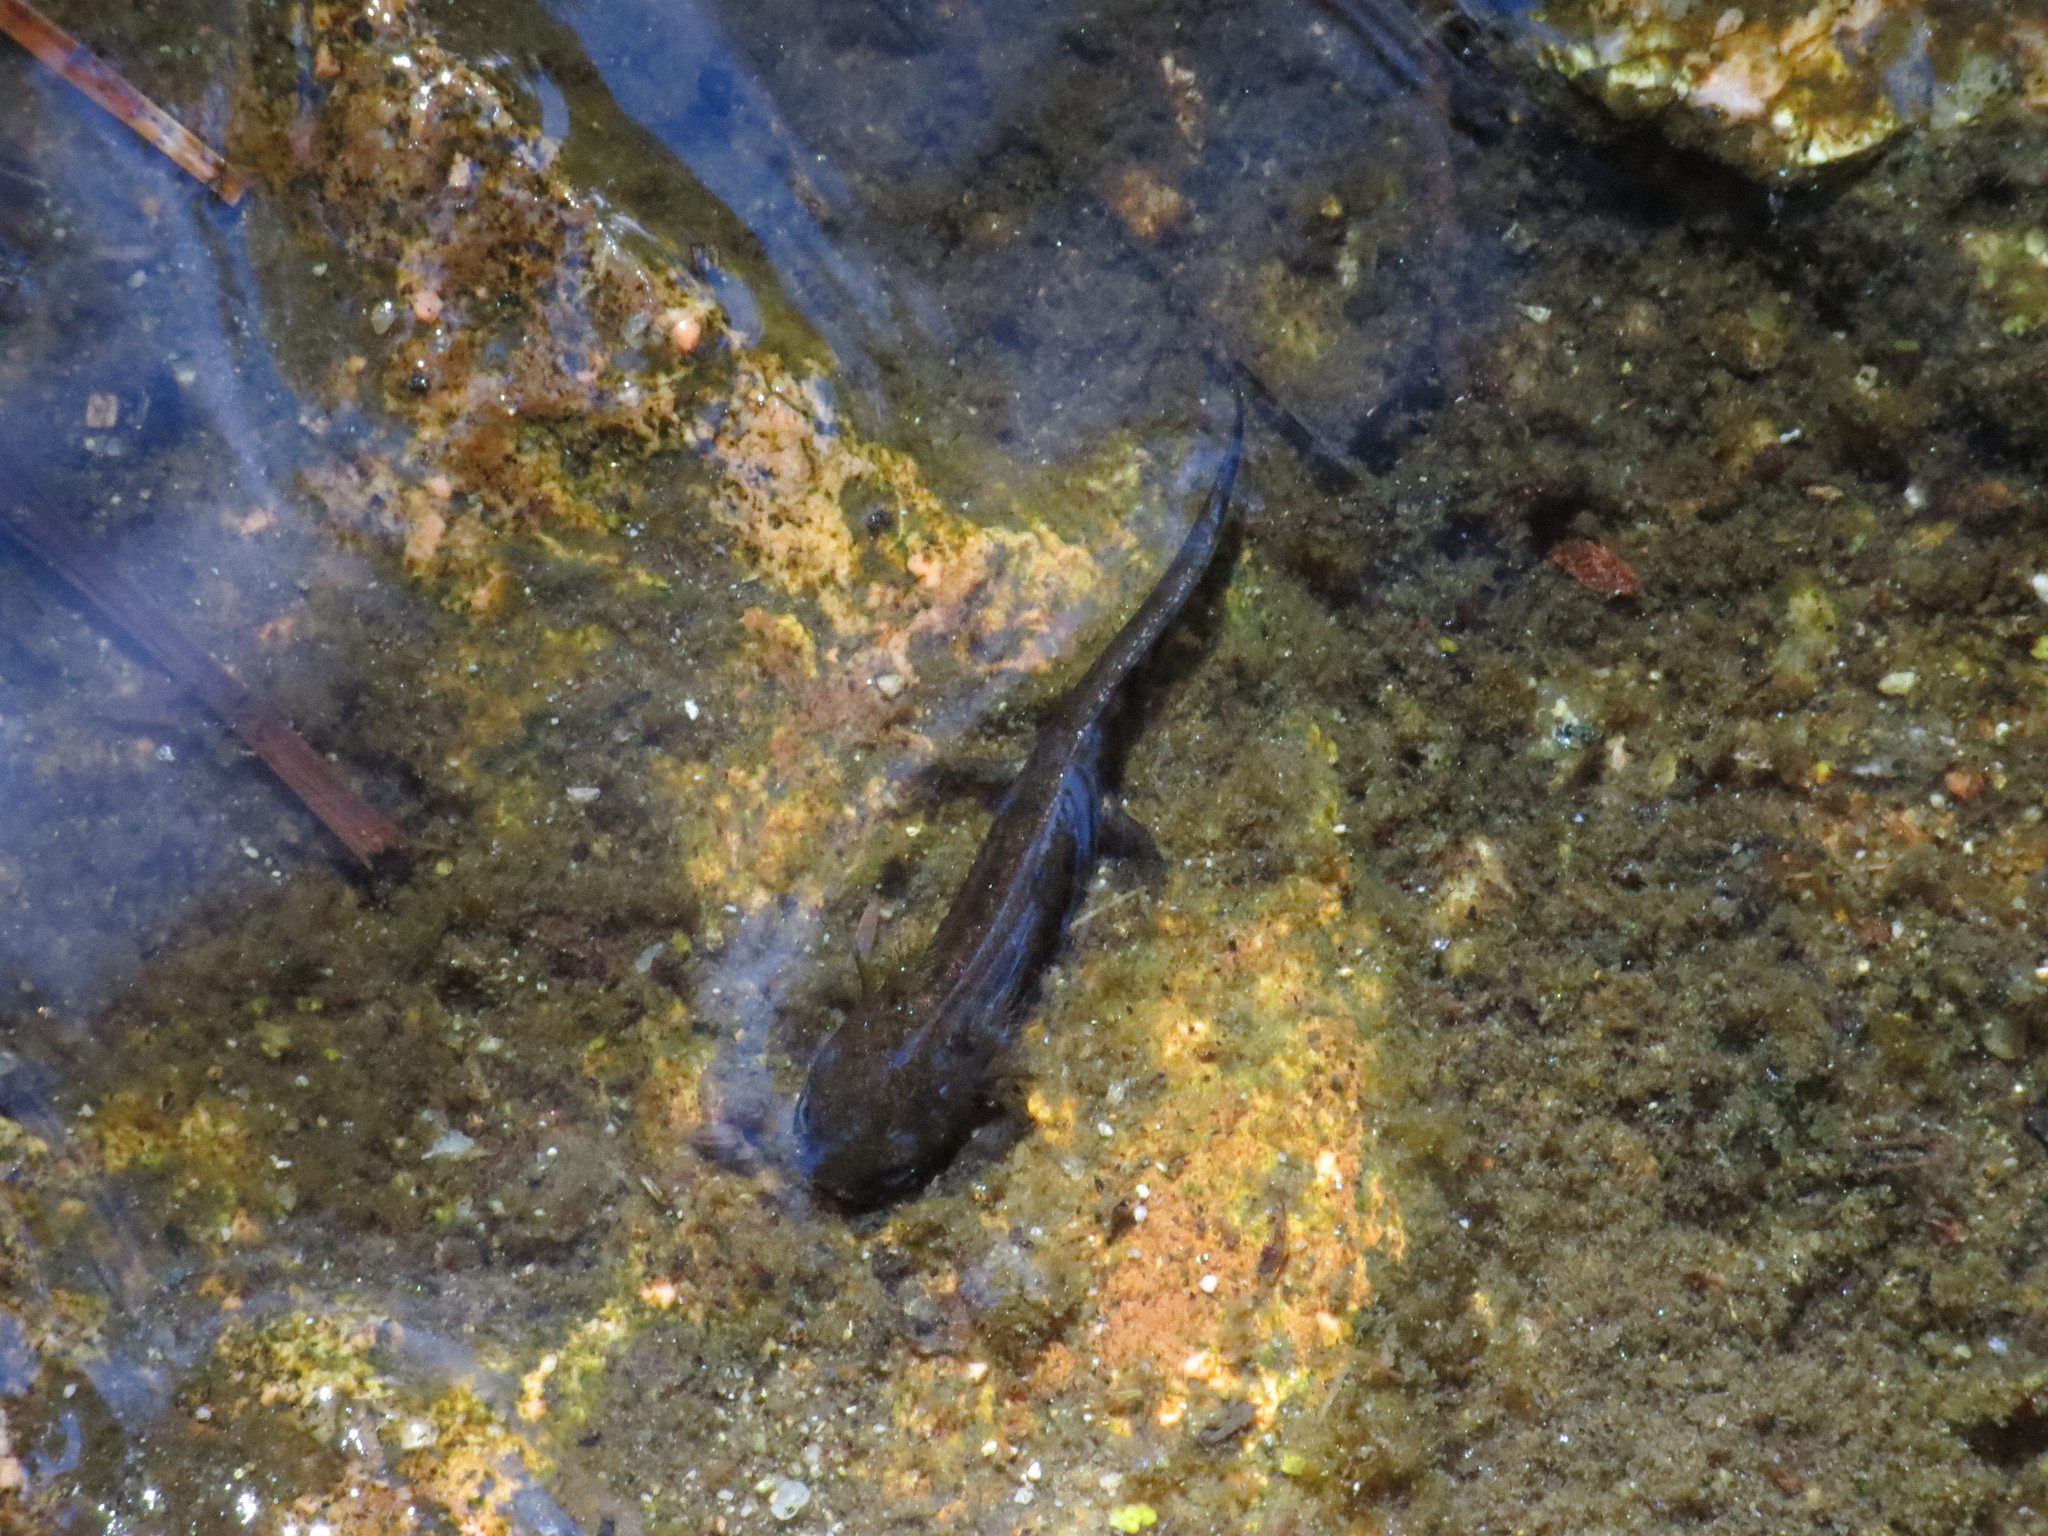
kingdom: Animalia
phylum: Chordata
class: Amphibia
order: Caudata
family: Salamandridae
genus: Salamandra
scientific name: Salamandra corsica
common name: Corsican fire salamander
